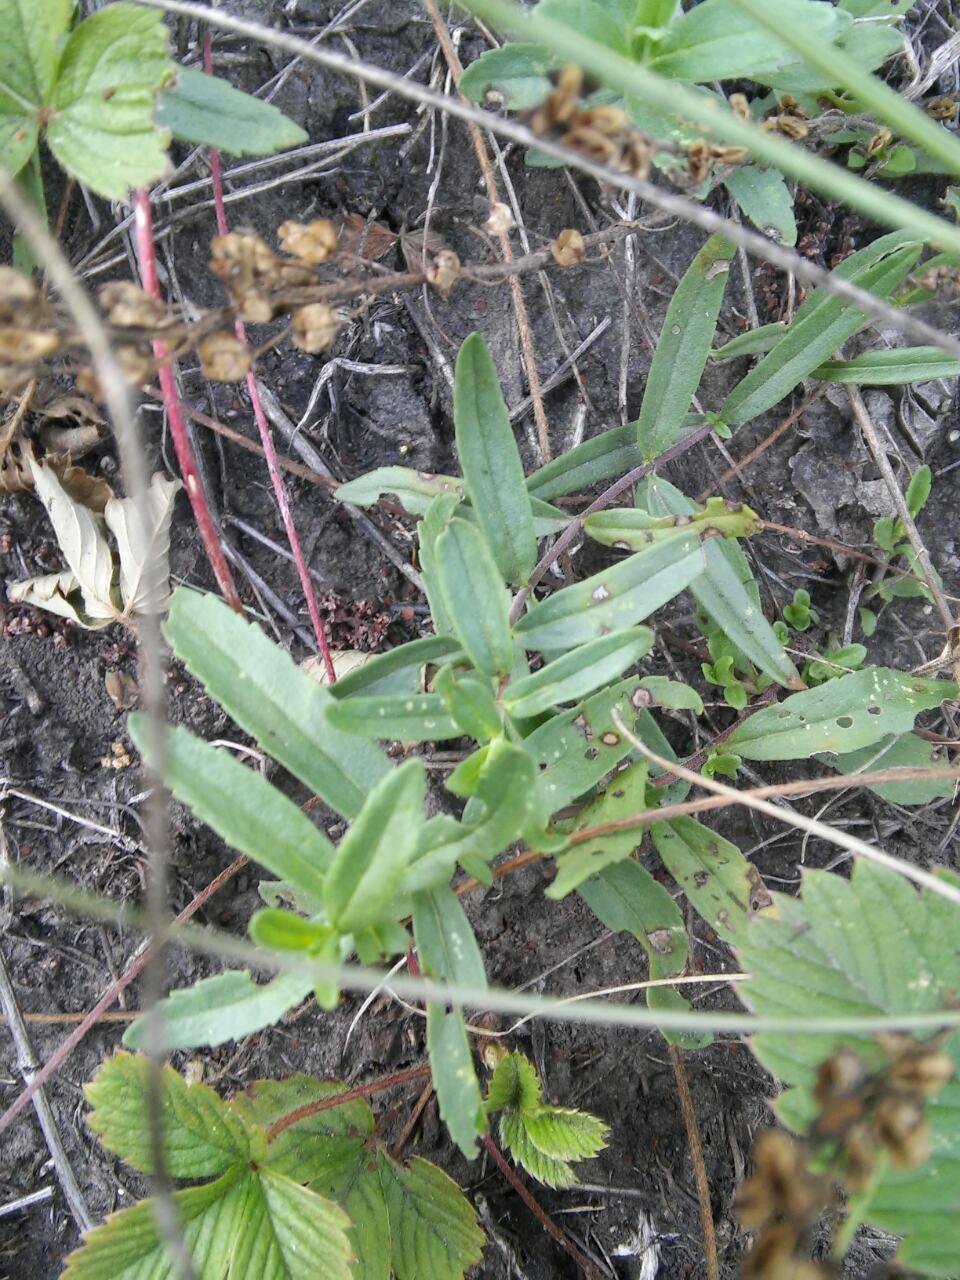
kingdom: Plantae
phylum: Tracheophyta
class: Magnoliopsida
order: Lamiales
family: Plantaginaceae
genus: Veronica
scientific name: Veronica prostrata
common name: Prostrate speedwell
